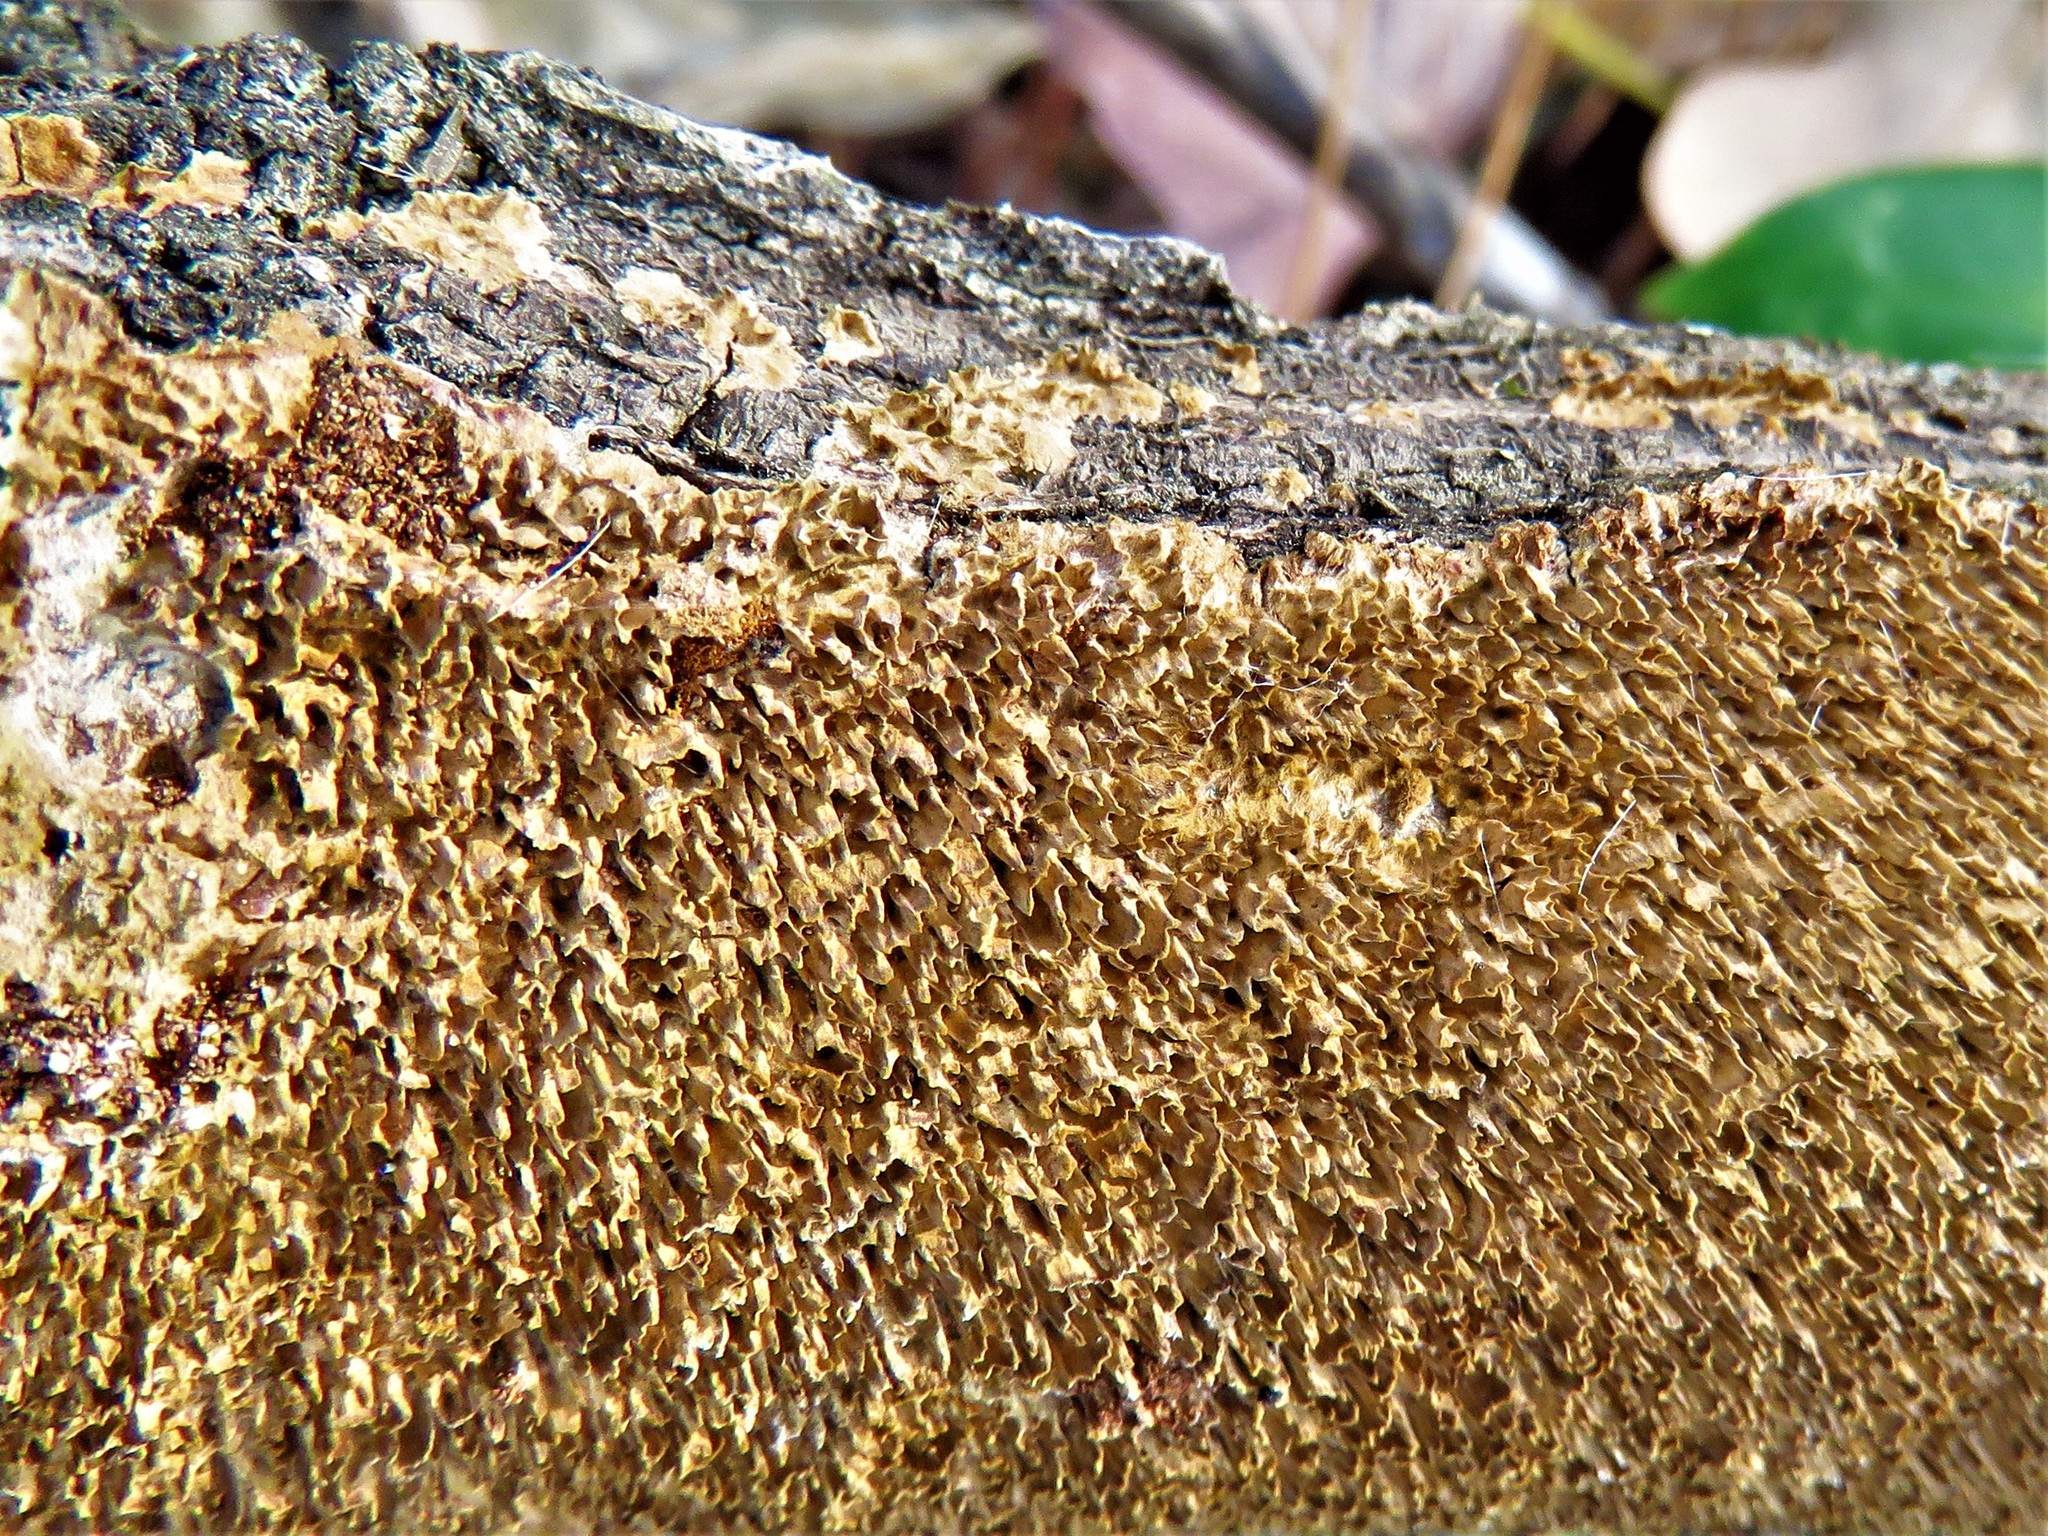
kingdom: Fungi
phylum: Basidiomycota
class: Agaricomycetes
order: Hymenochaetales
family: Hymenochaetaceae
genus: Hydnoporia
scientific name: Hydnoporia olivacea
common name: Brown-toothed crust fungus
